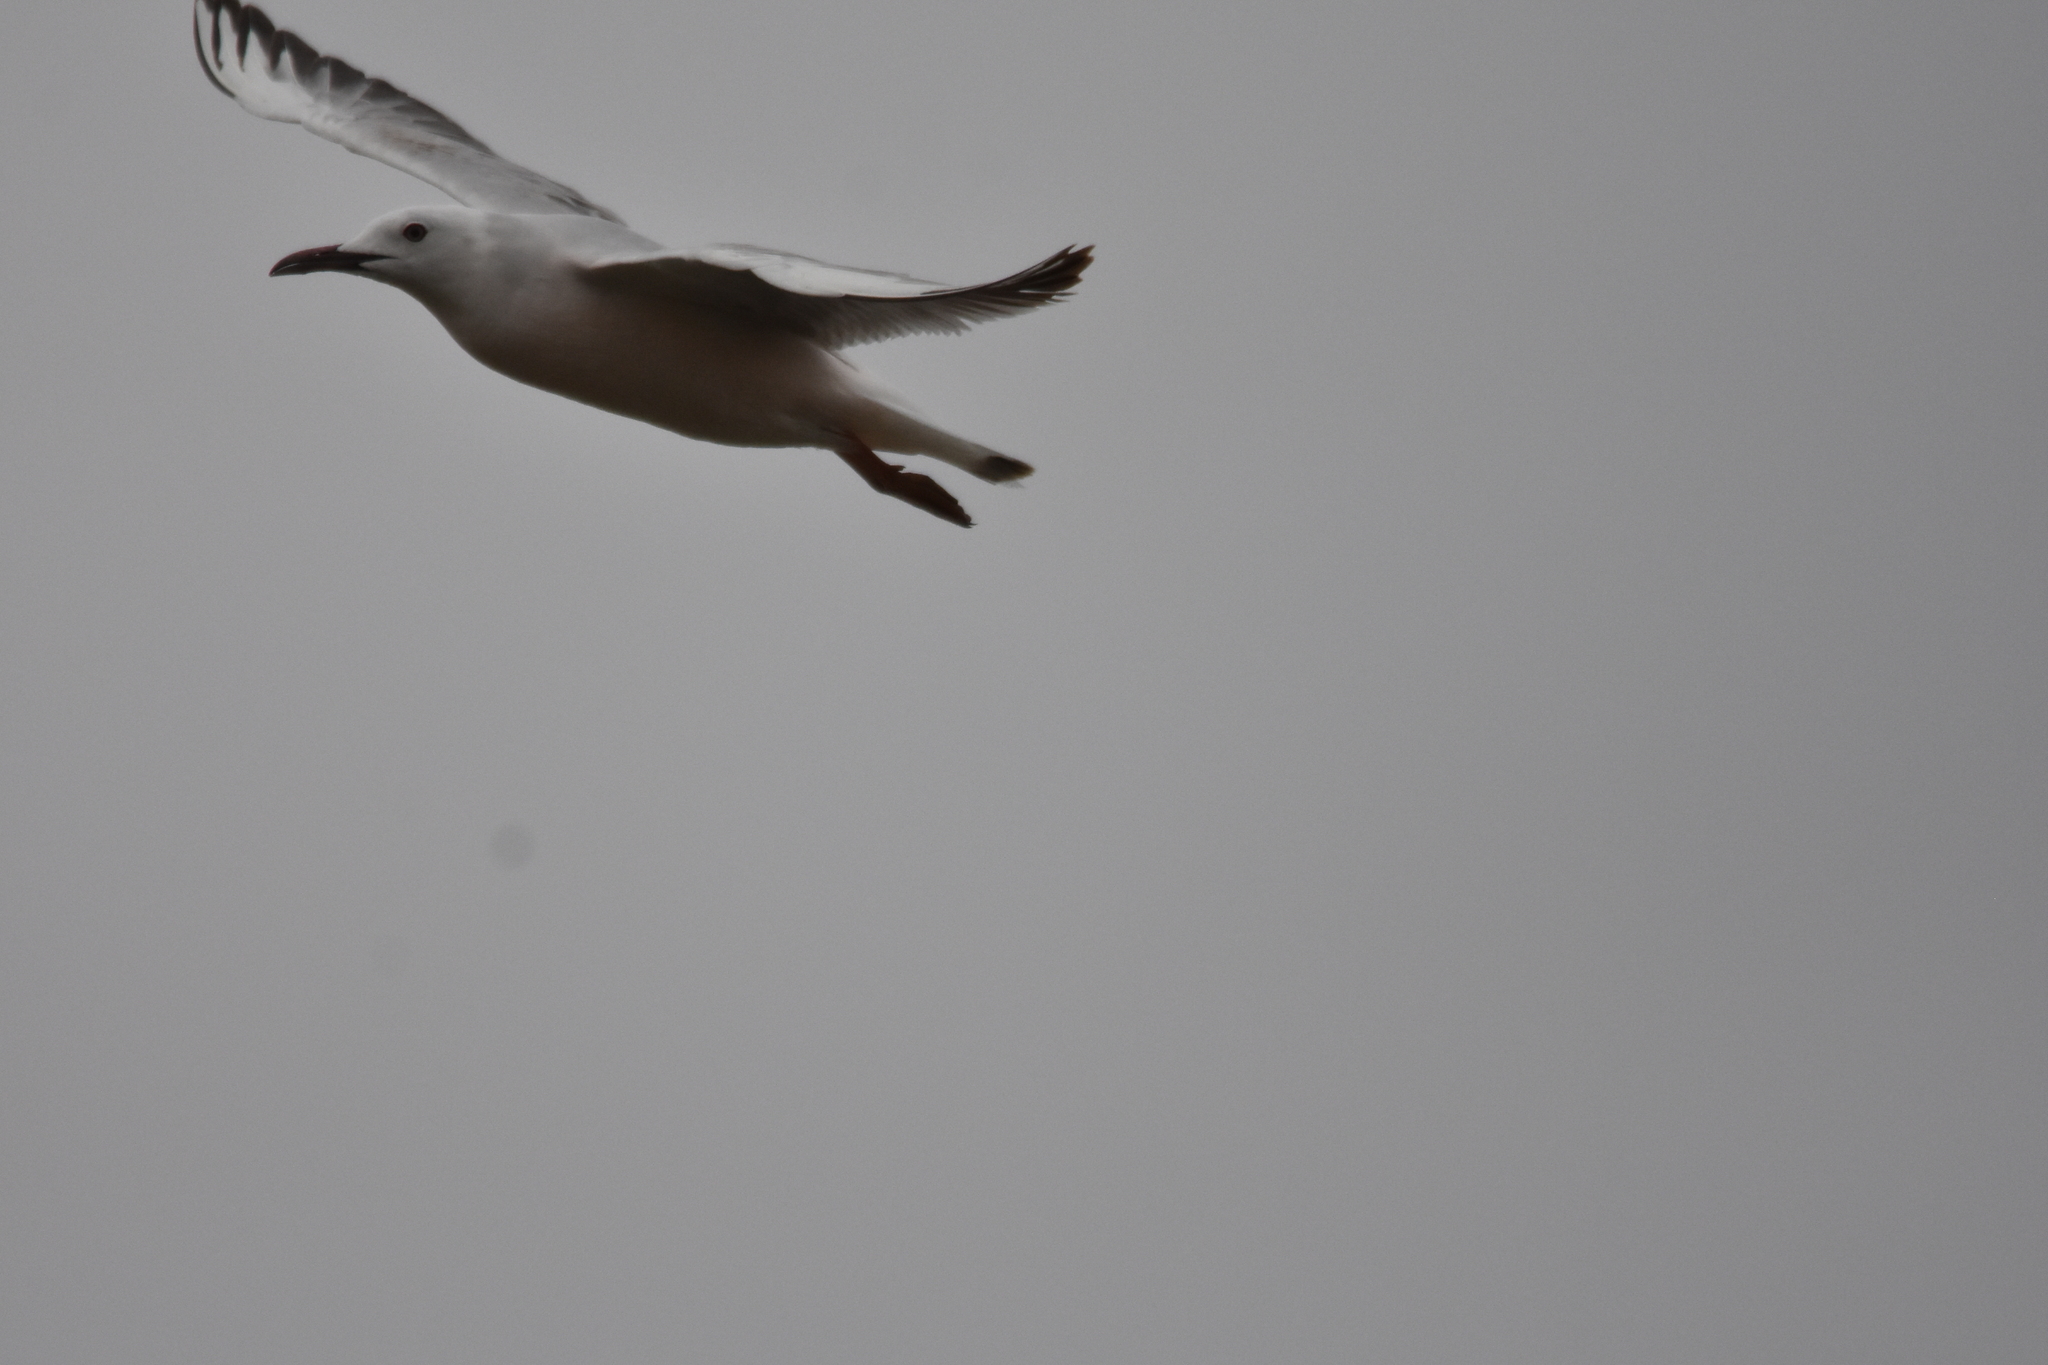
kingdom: Animalia
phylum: Chordata
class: Aves
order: Charadriiformes
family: Laridae
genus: Chroicocephalus
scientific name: Chroicocephalus genei
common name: Slender-billed gull
